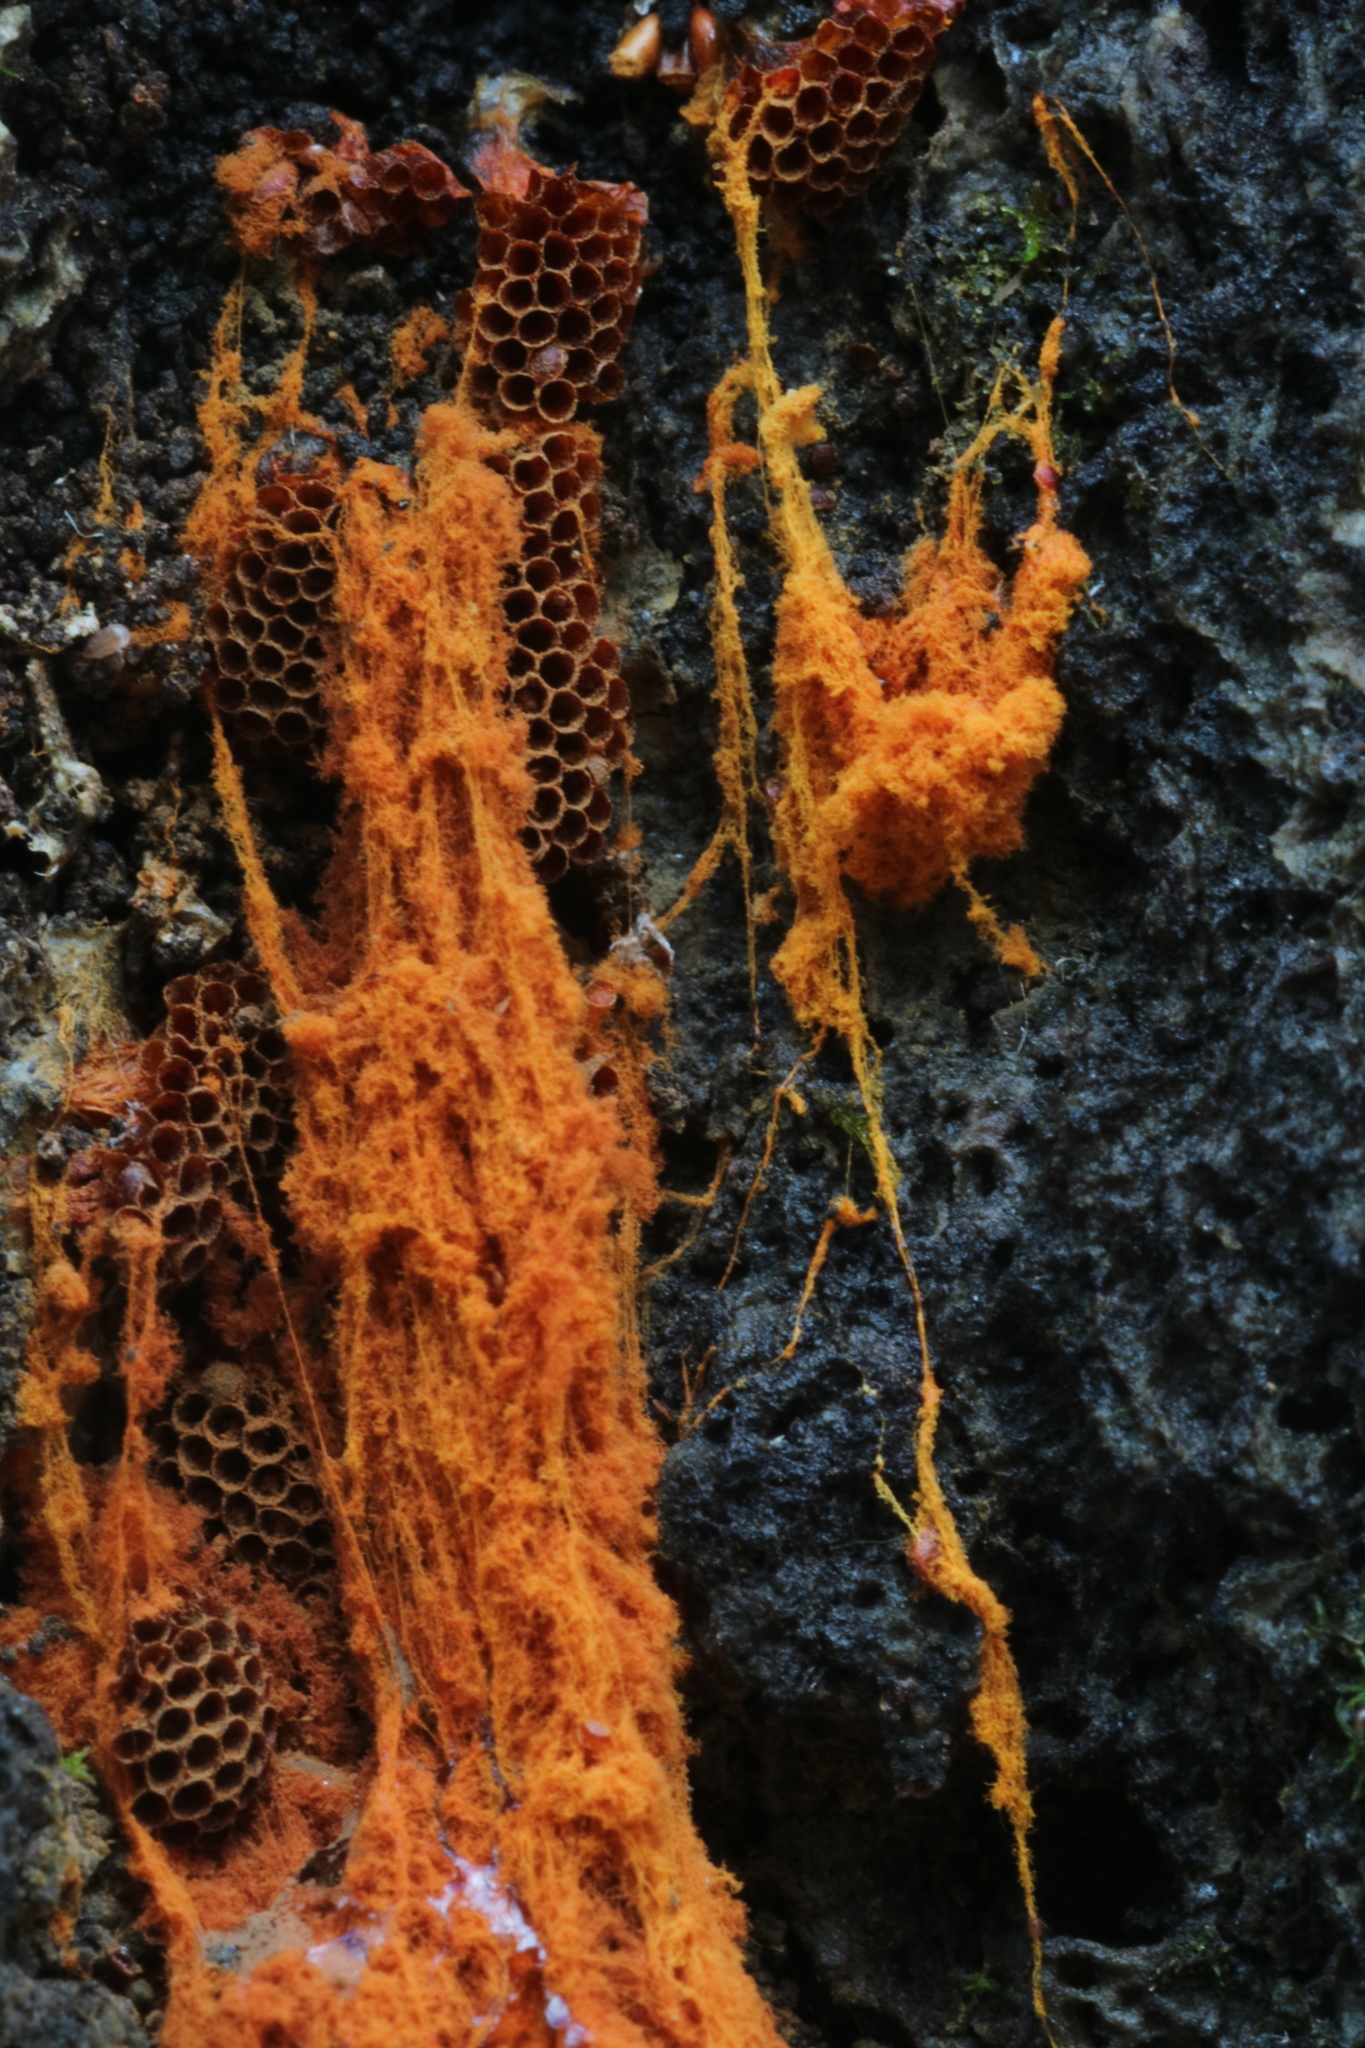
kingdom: Protozoa
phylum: Mycetozoa
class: Myxomycetes
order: Trichiales
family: Trichiaceae
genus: Metatrichia
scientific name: Metatrichia vesparia
